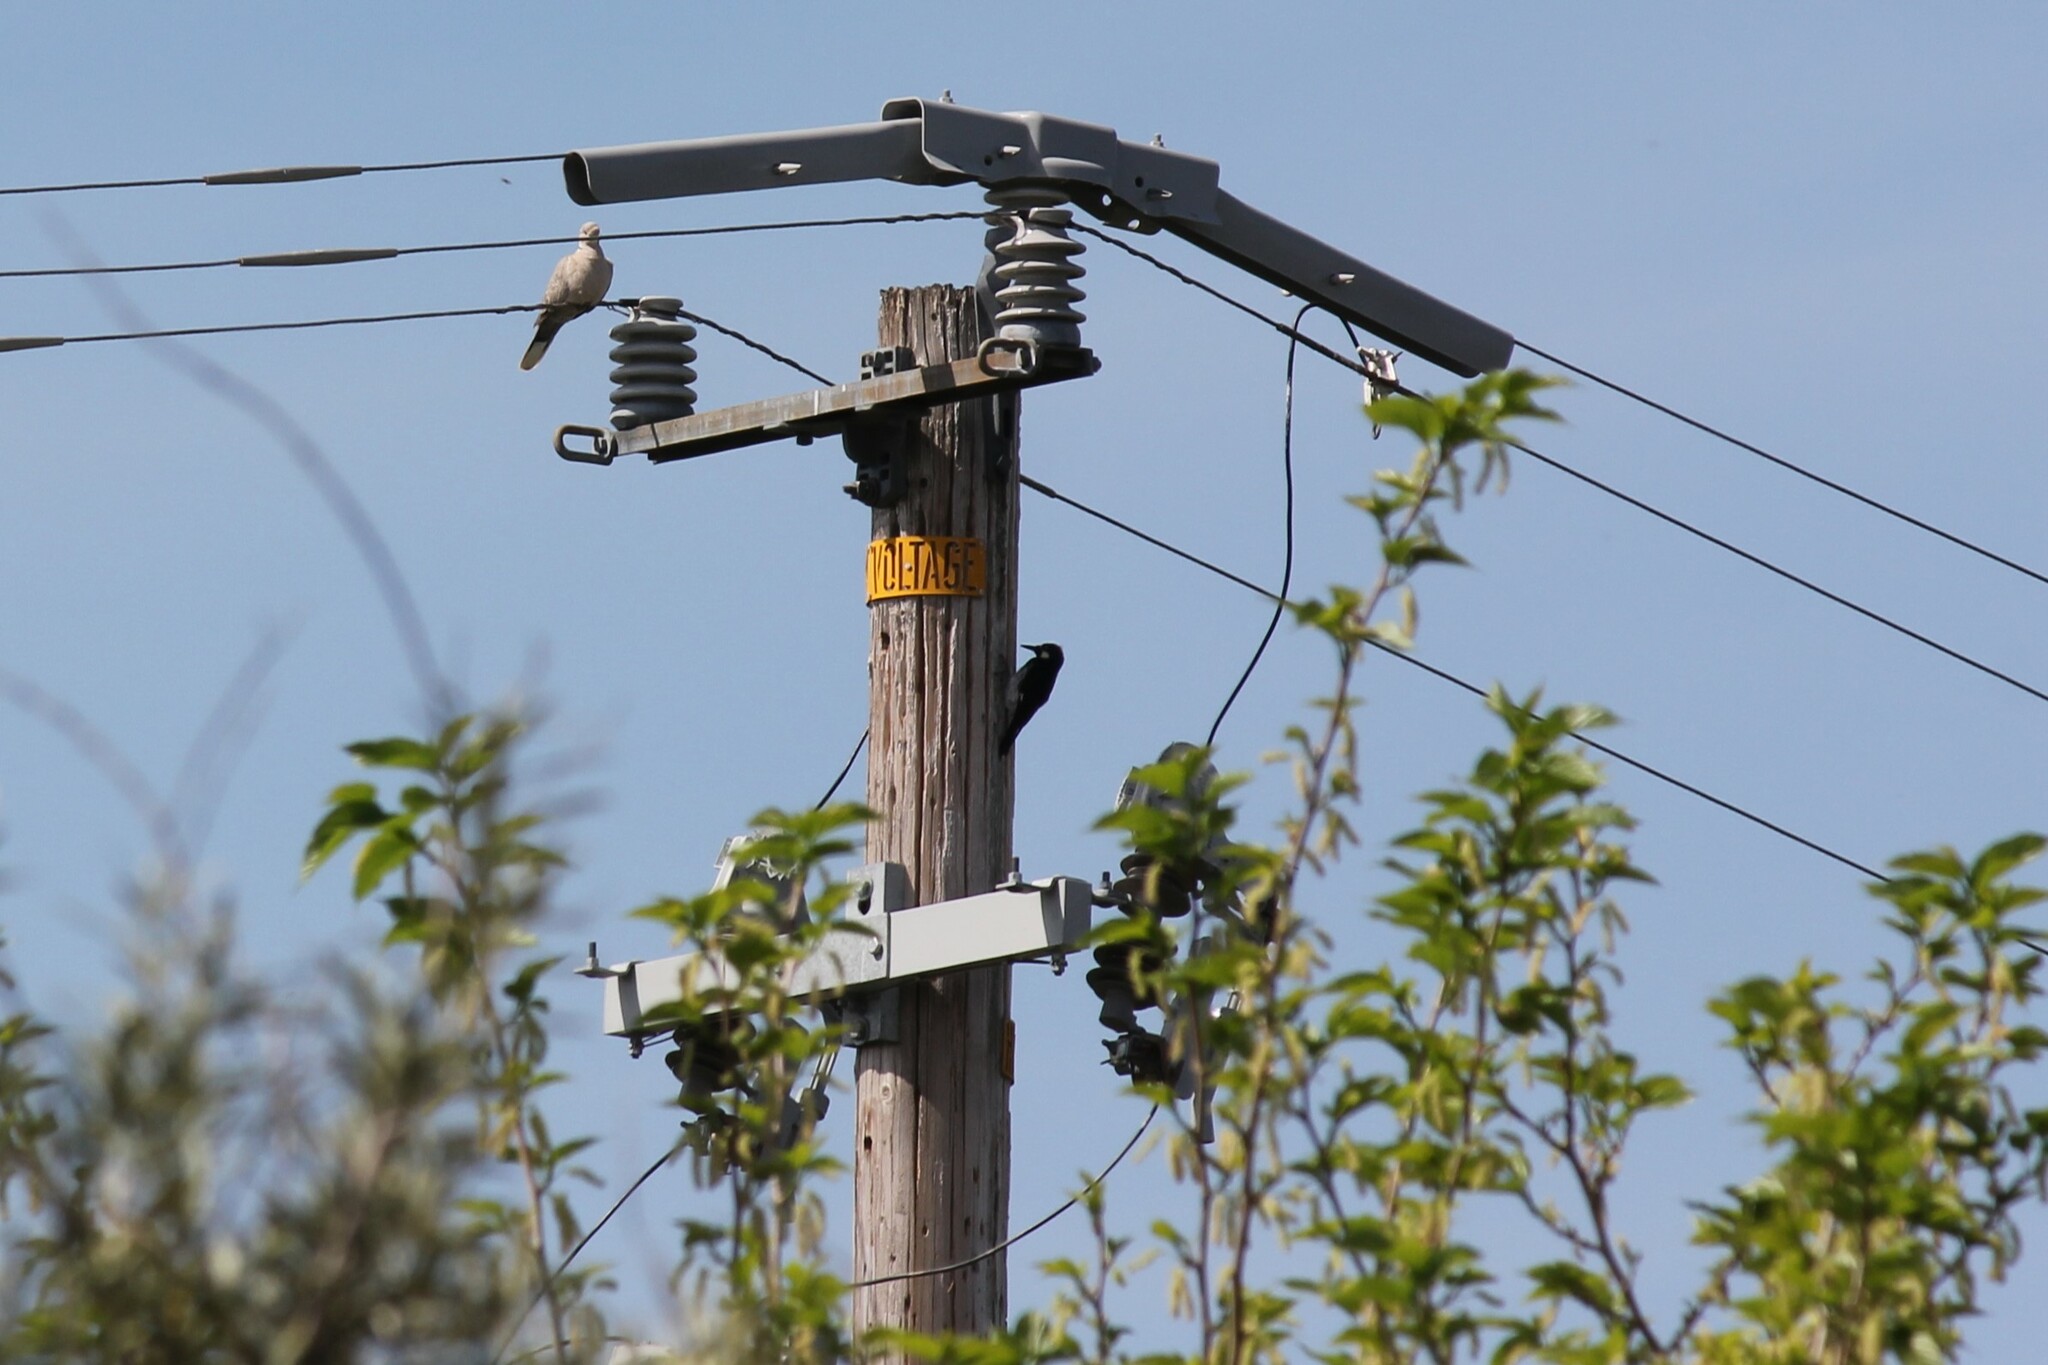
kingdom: Animalia
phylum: Chordata
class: Aves
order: Piciformes
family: Picidae
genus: Melanerpes
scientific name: Melanerpes formicivorus
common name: Acorn woodpecker
